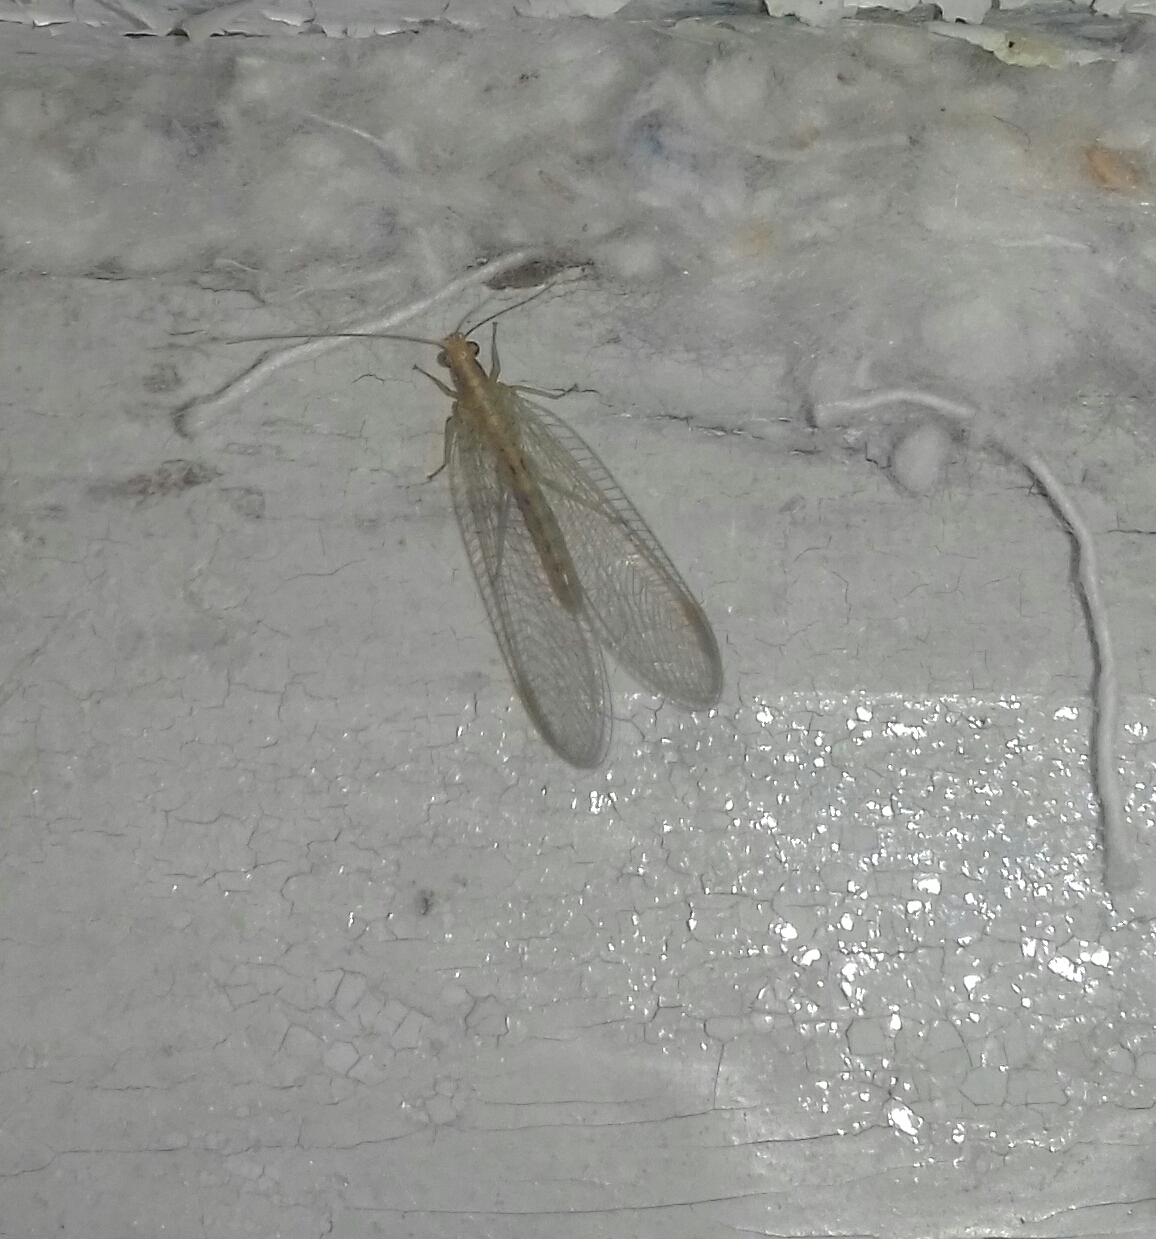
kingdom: Animalia
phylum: Arthropoda
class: Insecta
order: Neuroptera
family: Chrysopidae
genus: Chrysoperla
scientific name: Chrysoperla
